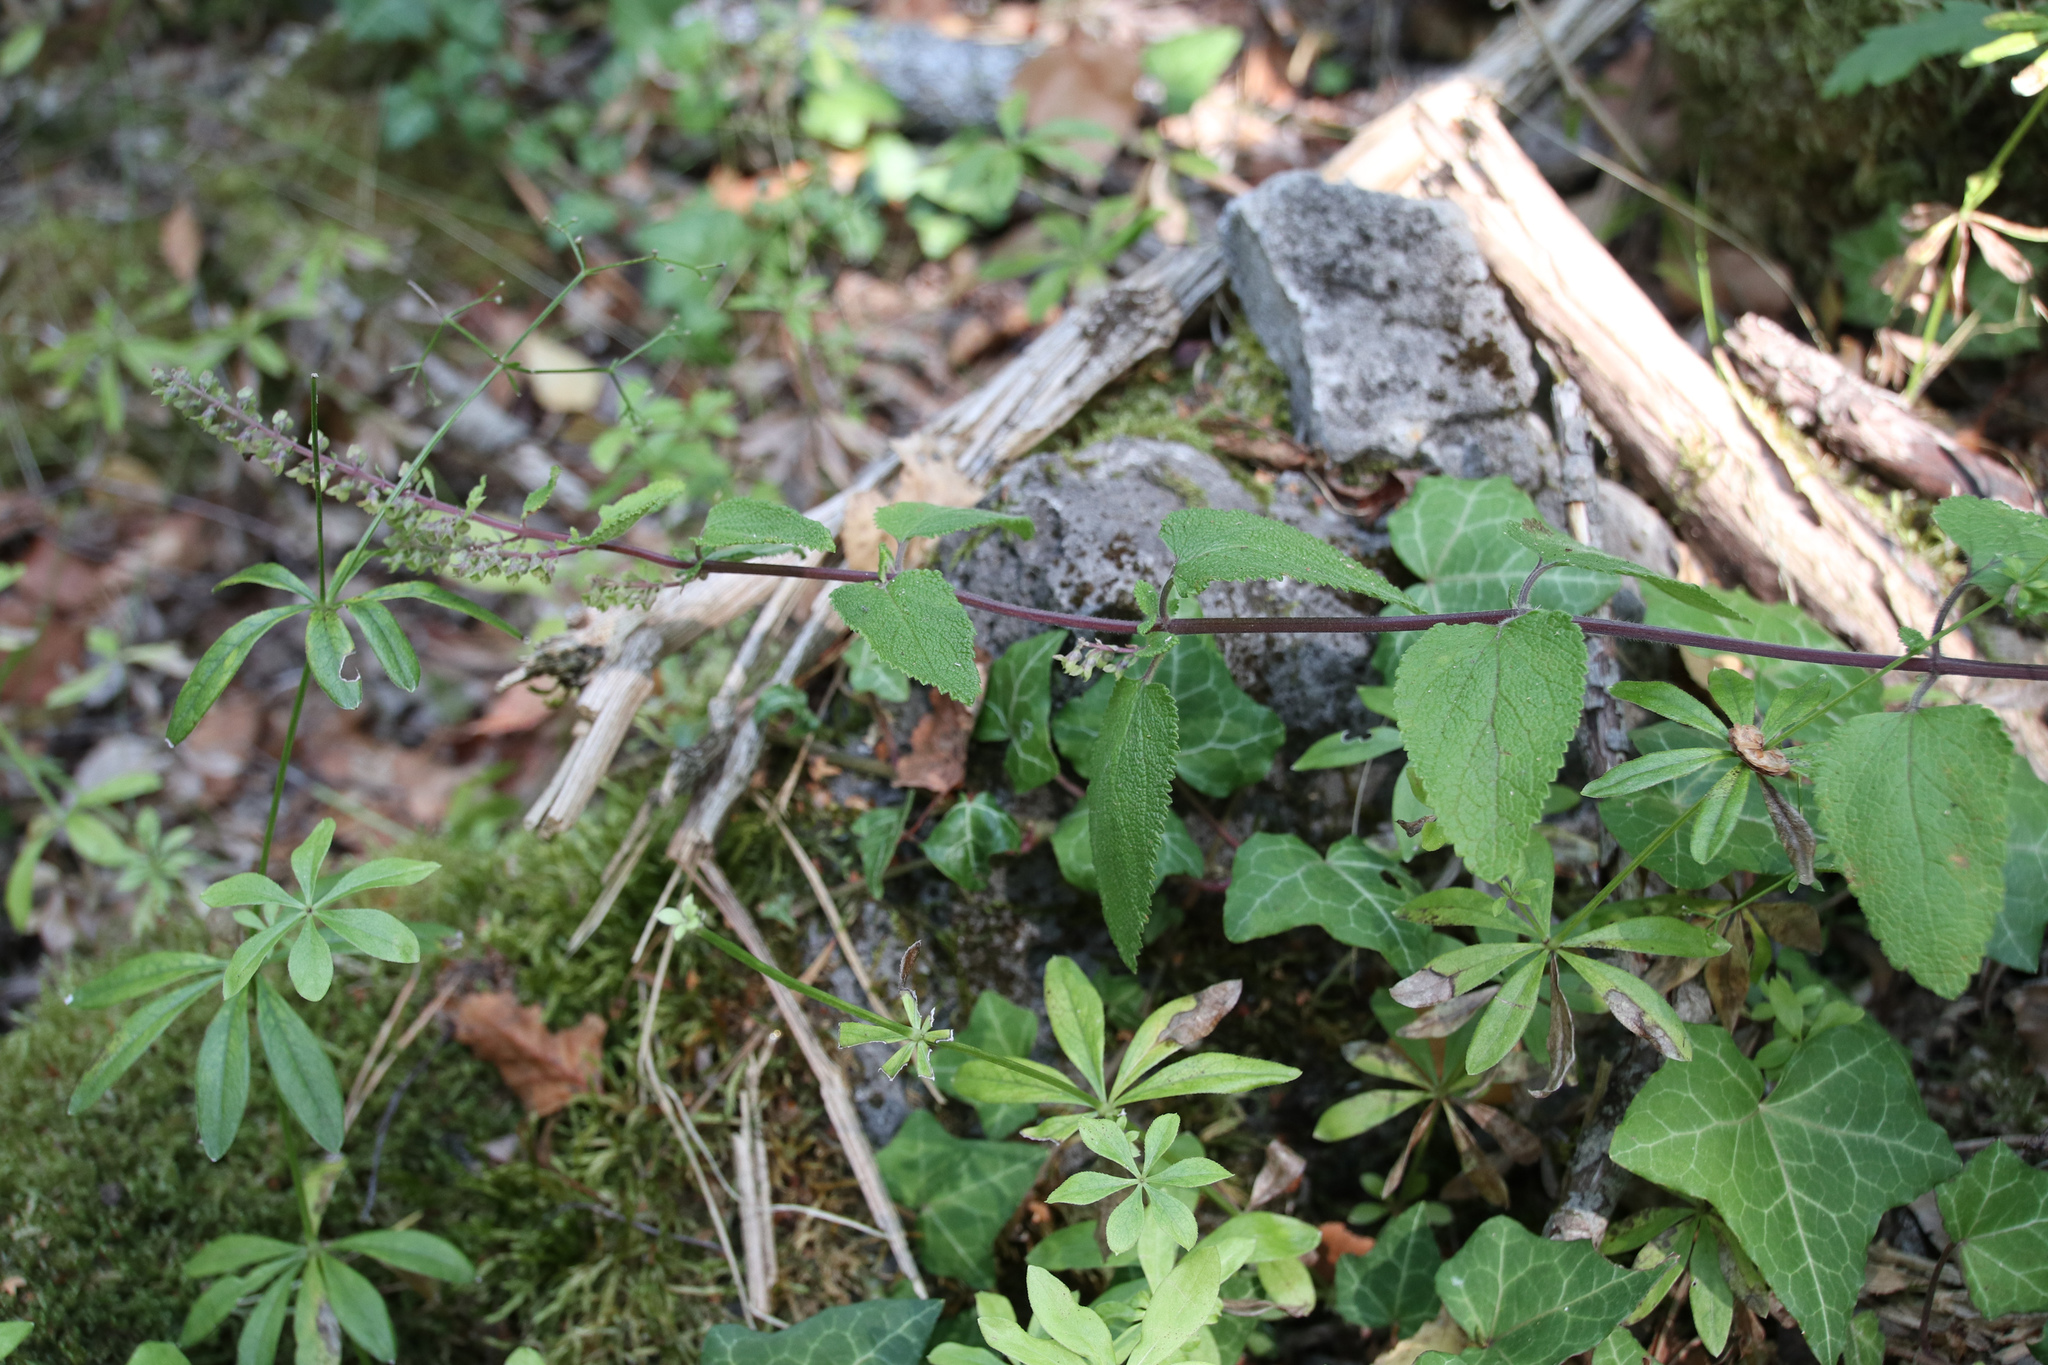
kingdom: Plantae
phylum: Tracheophyta
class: Magnoliopsida
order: Lamiales
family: Lamiaceae
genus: Teucrium
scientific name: Teucrium scorodonia
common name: Woodland germander
